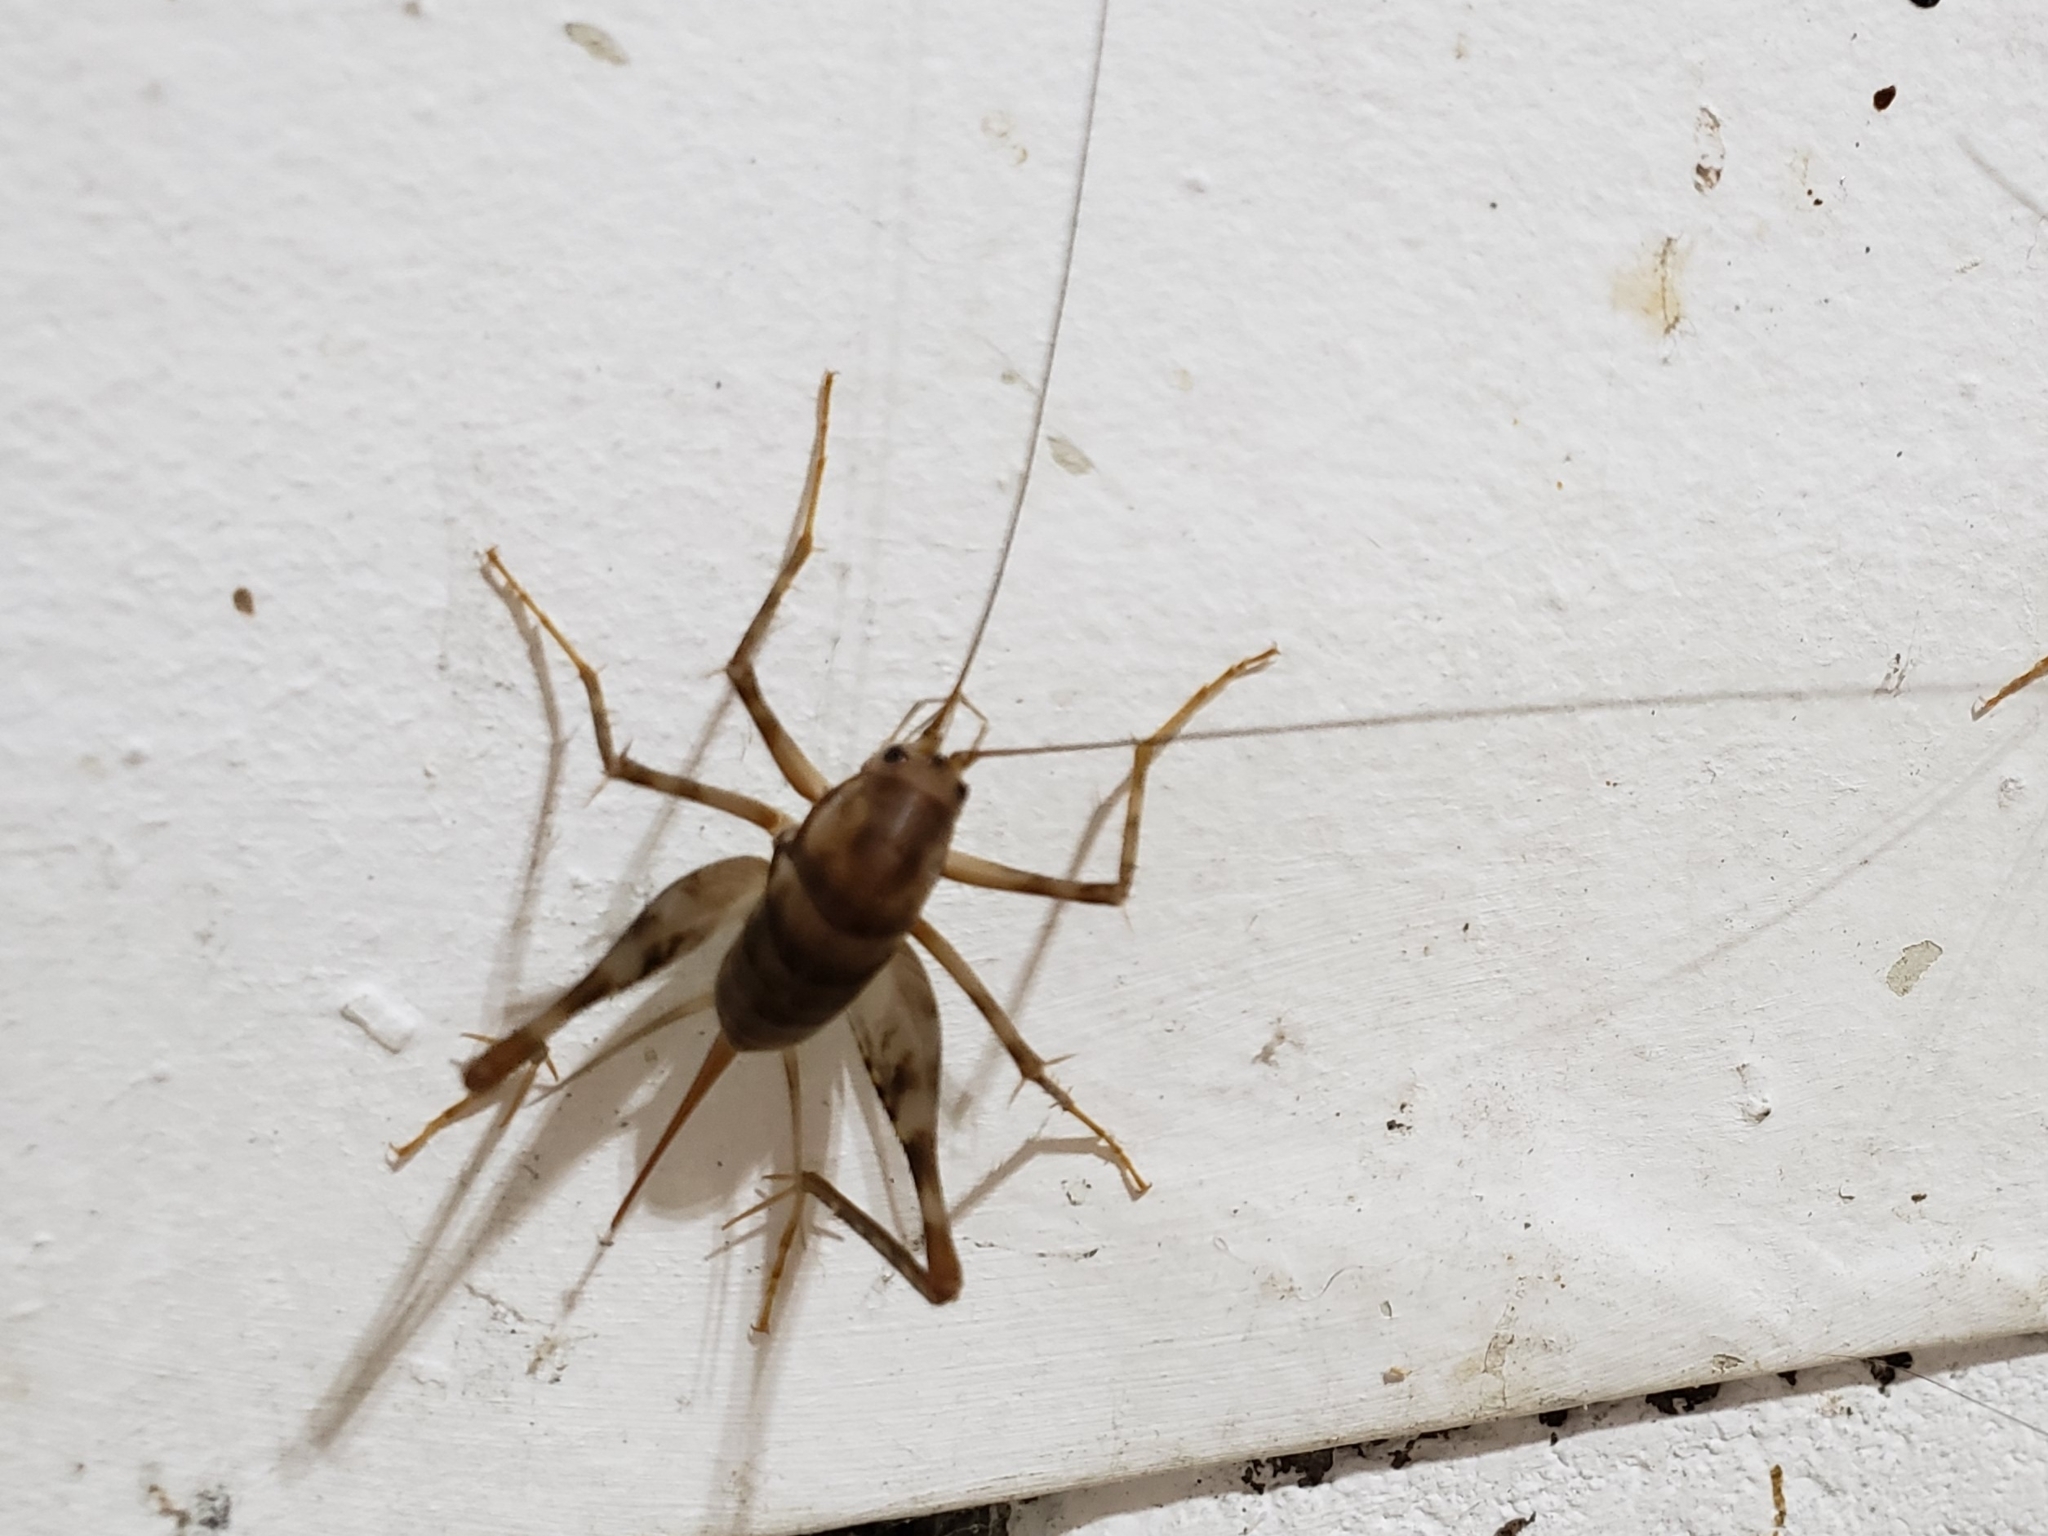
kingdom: Animalia
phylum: Arthropoda
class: Insecta
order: Orthoptera
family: Rhaphidophoridae
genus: Tachycines
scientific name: Tachycines asynamorus
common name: Greenhouse camel cricket
